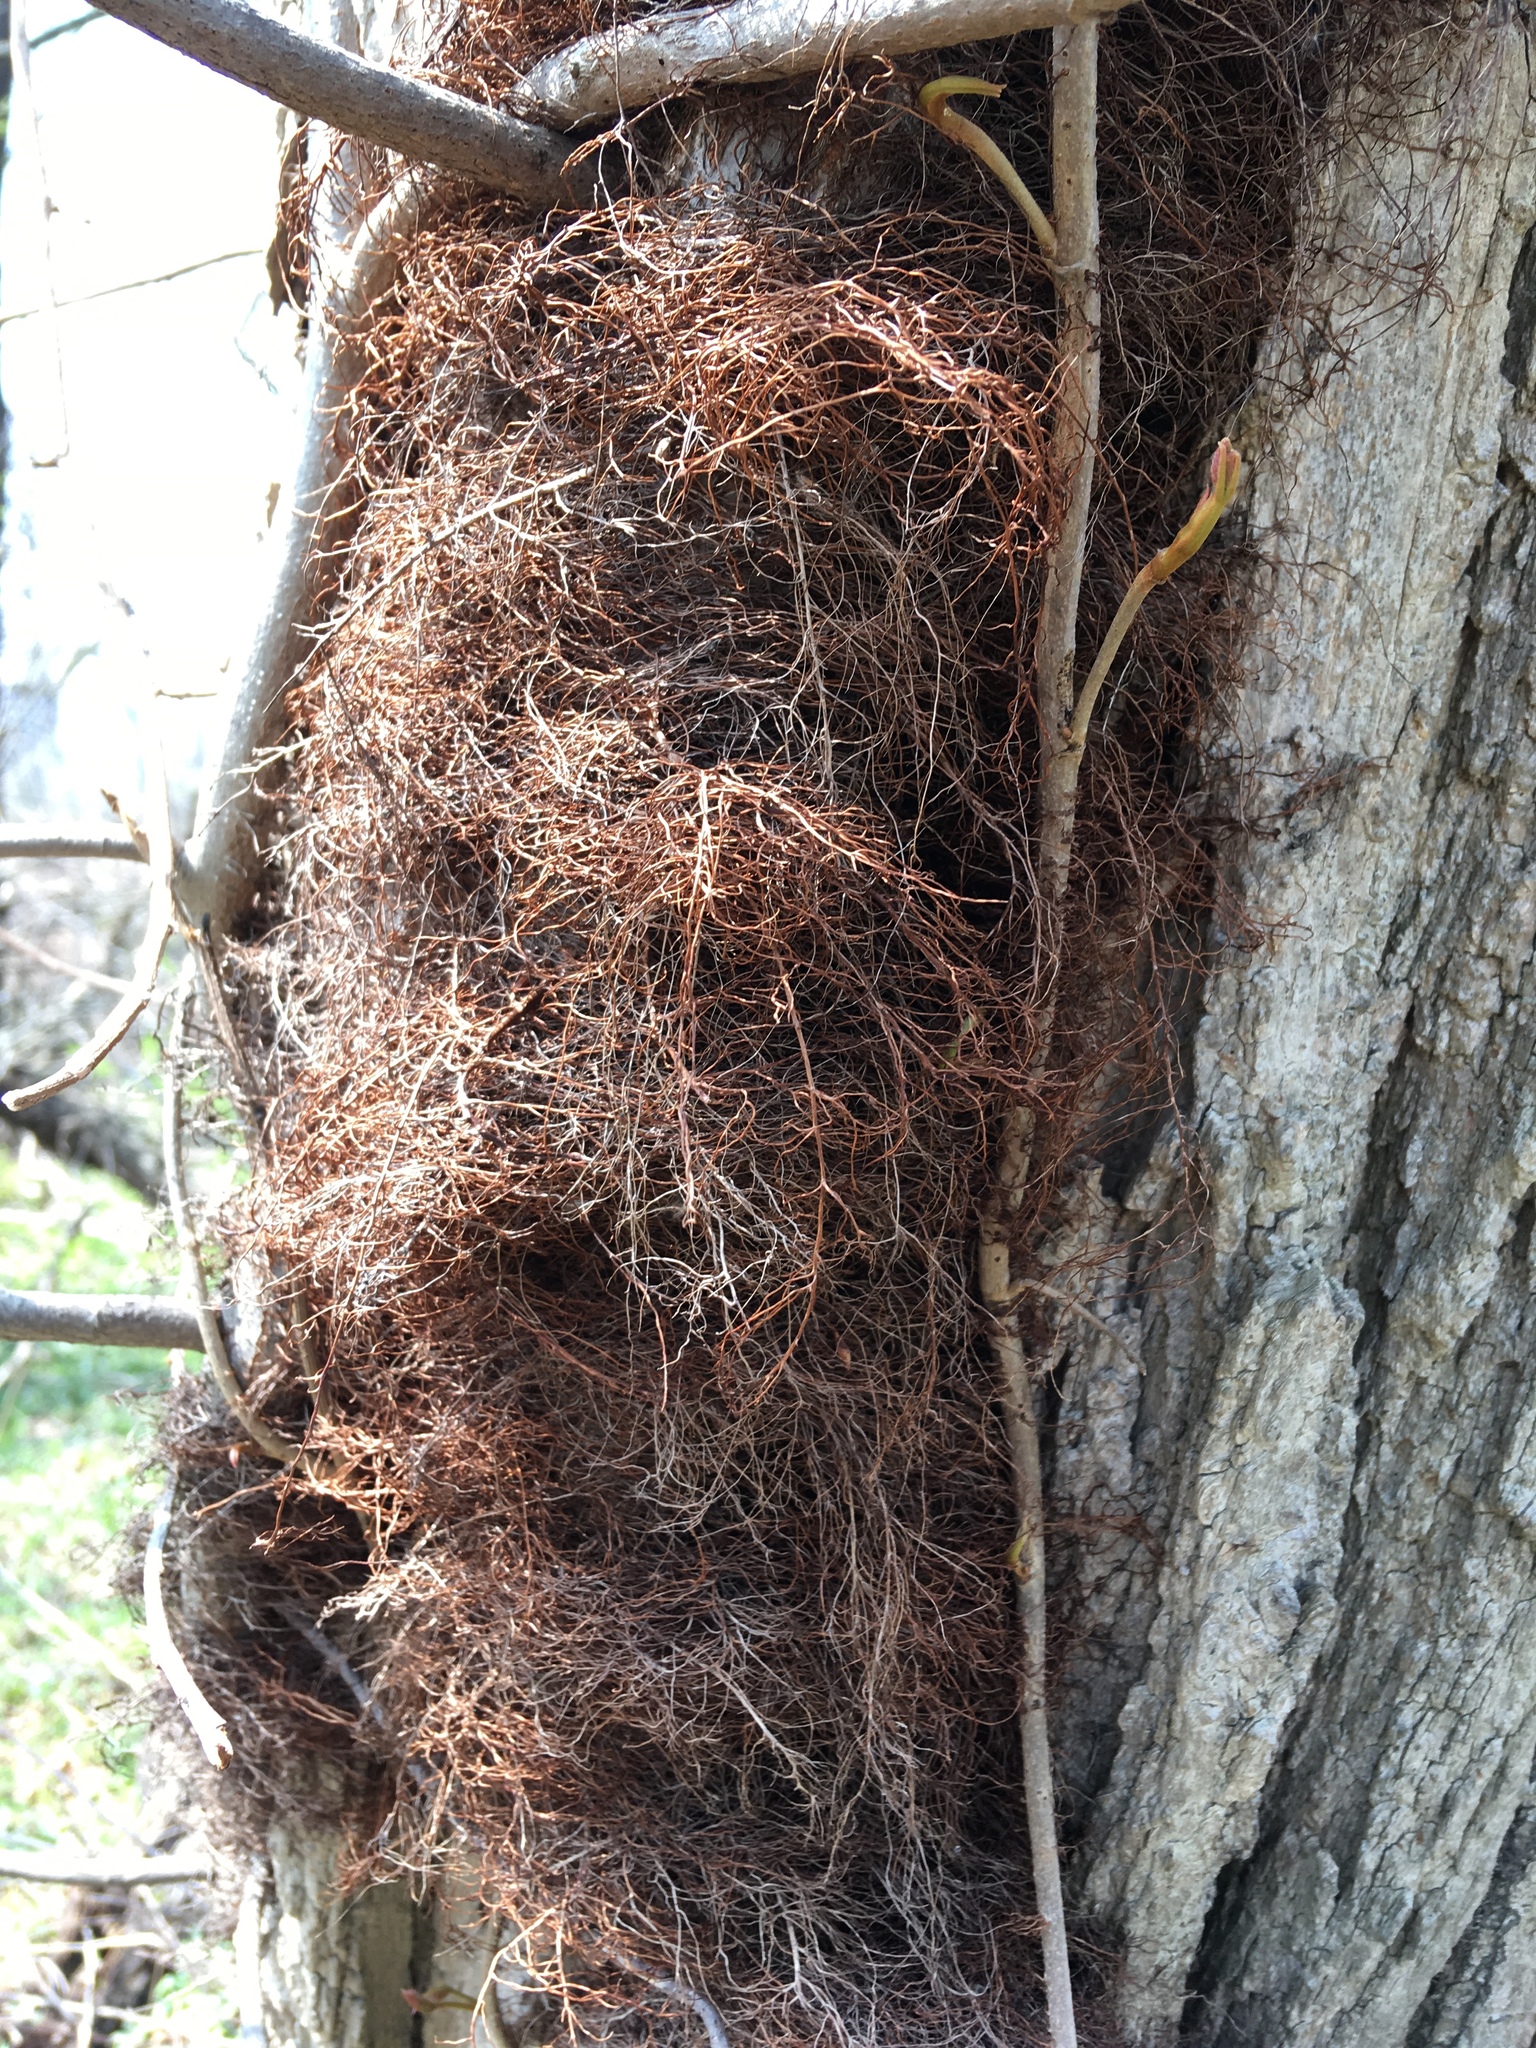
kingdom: Plantae
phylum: Tracheophyta
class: Magnoliopsida
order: Sapindales
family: Anacardiaceae
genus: Toxicodendron
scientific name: Toxicodendron radicans
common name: Poison ivy
